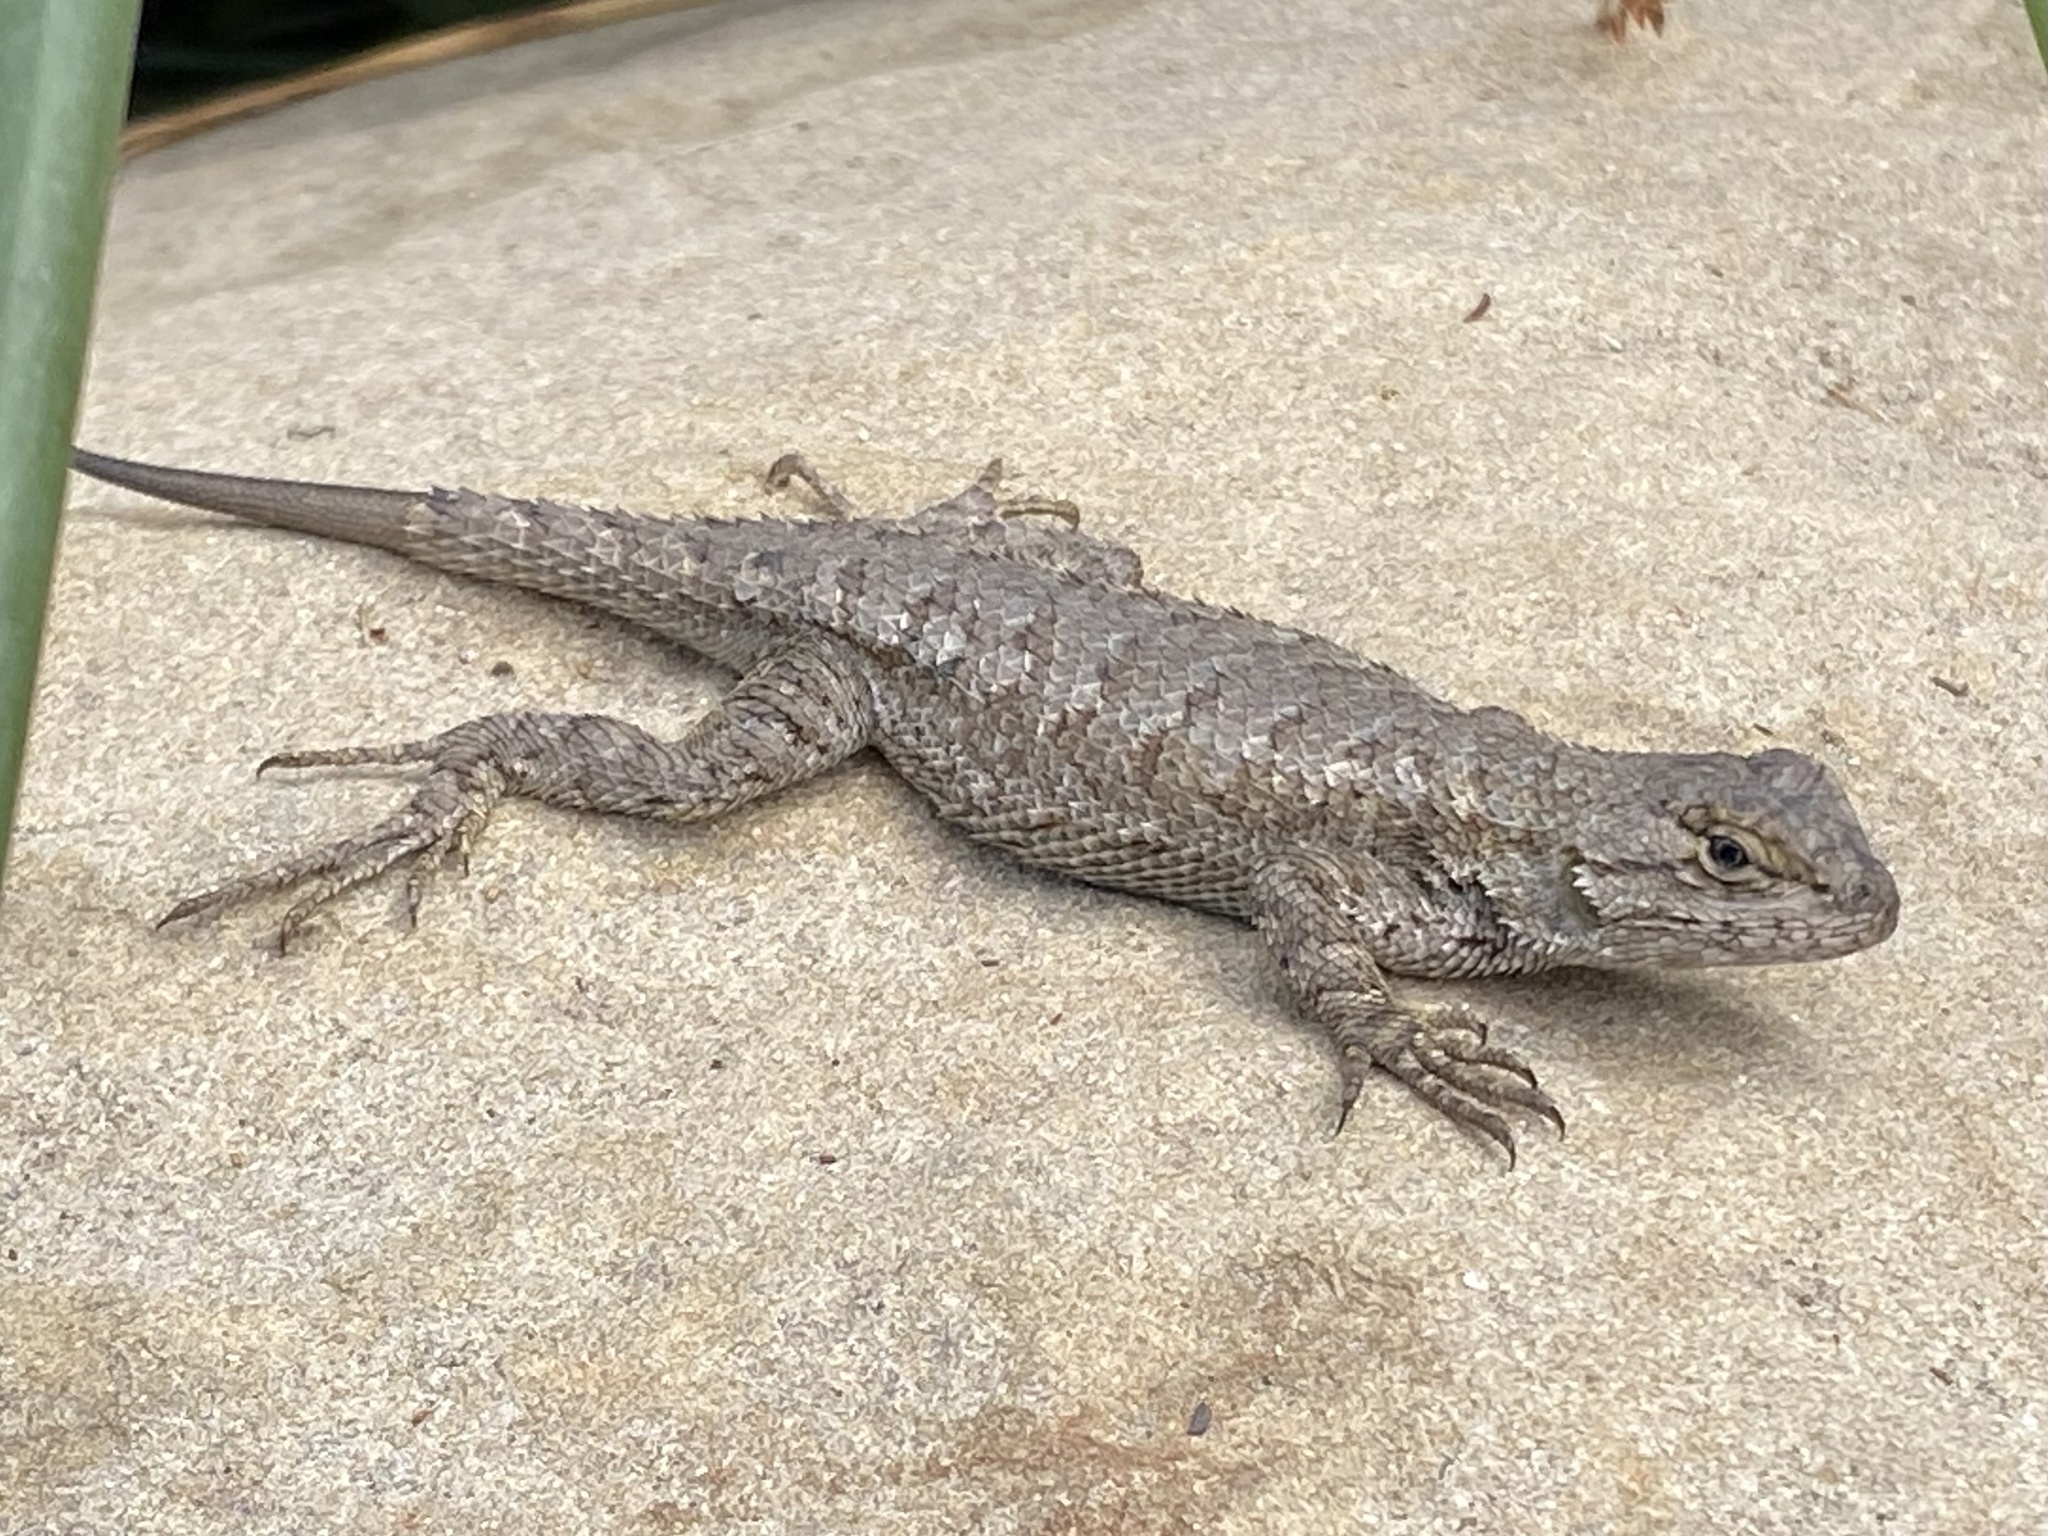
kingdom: Animalia
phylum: Chordata
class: Squamata
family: Phrynosomatidae
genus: Sceloporus
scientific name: Sceloporus occidentalis
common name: Western fence lizard
